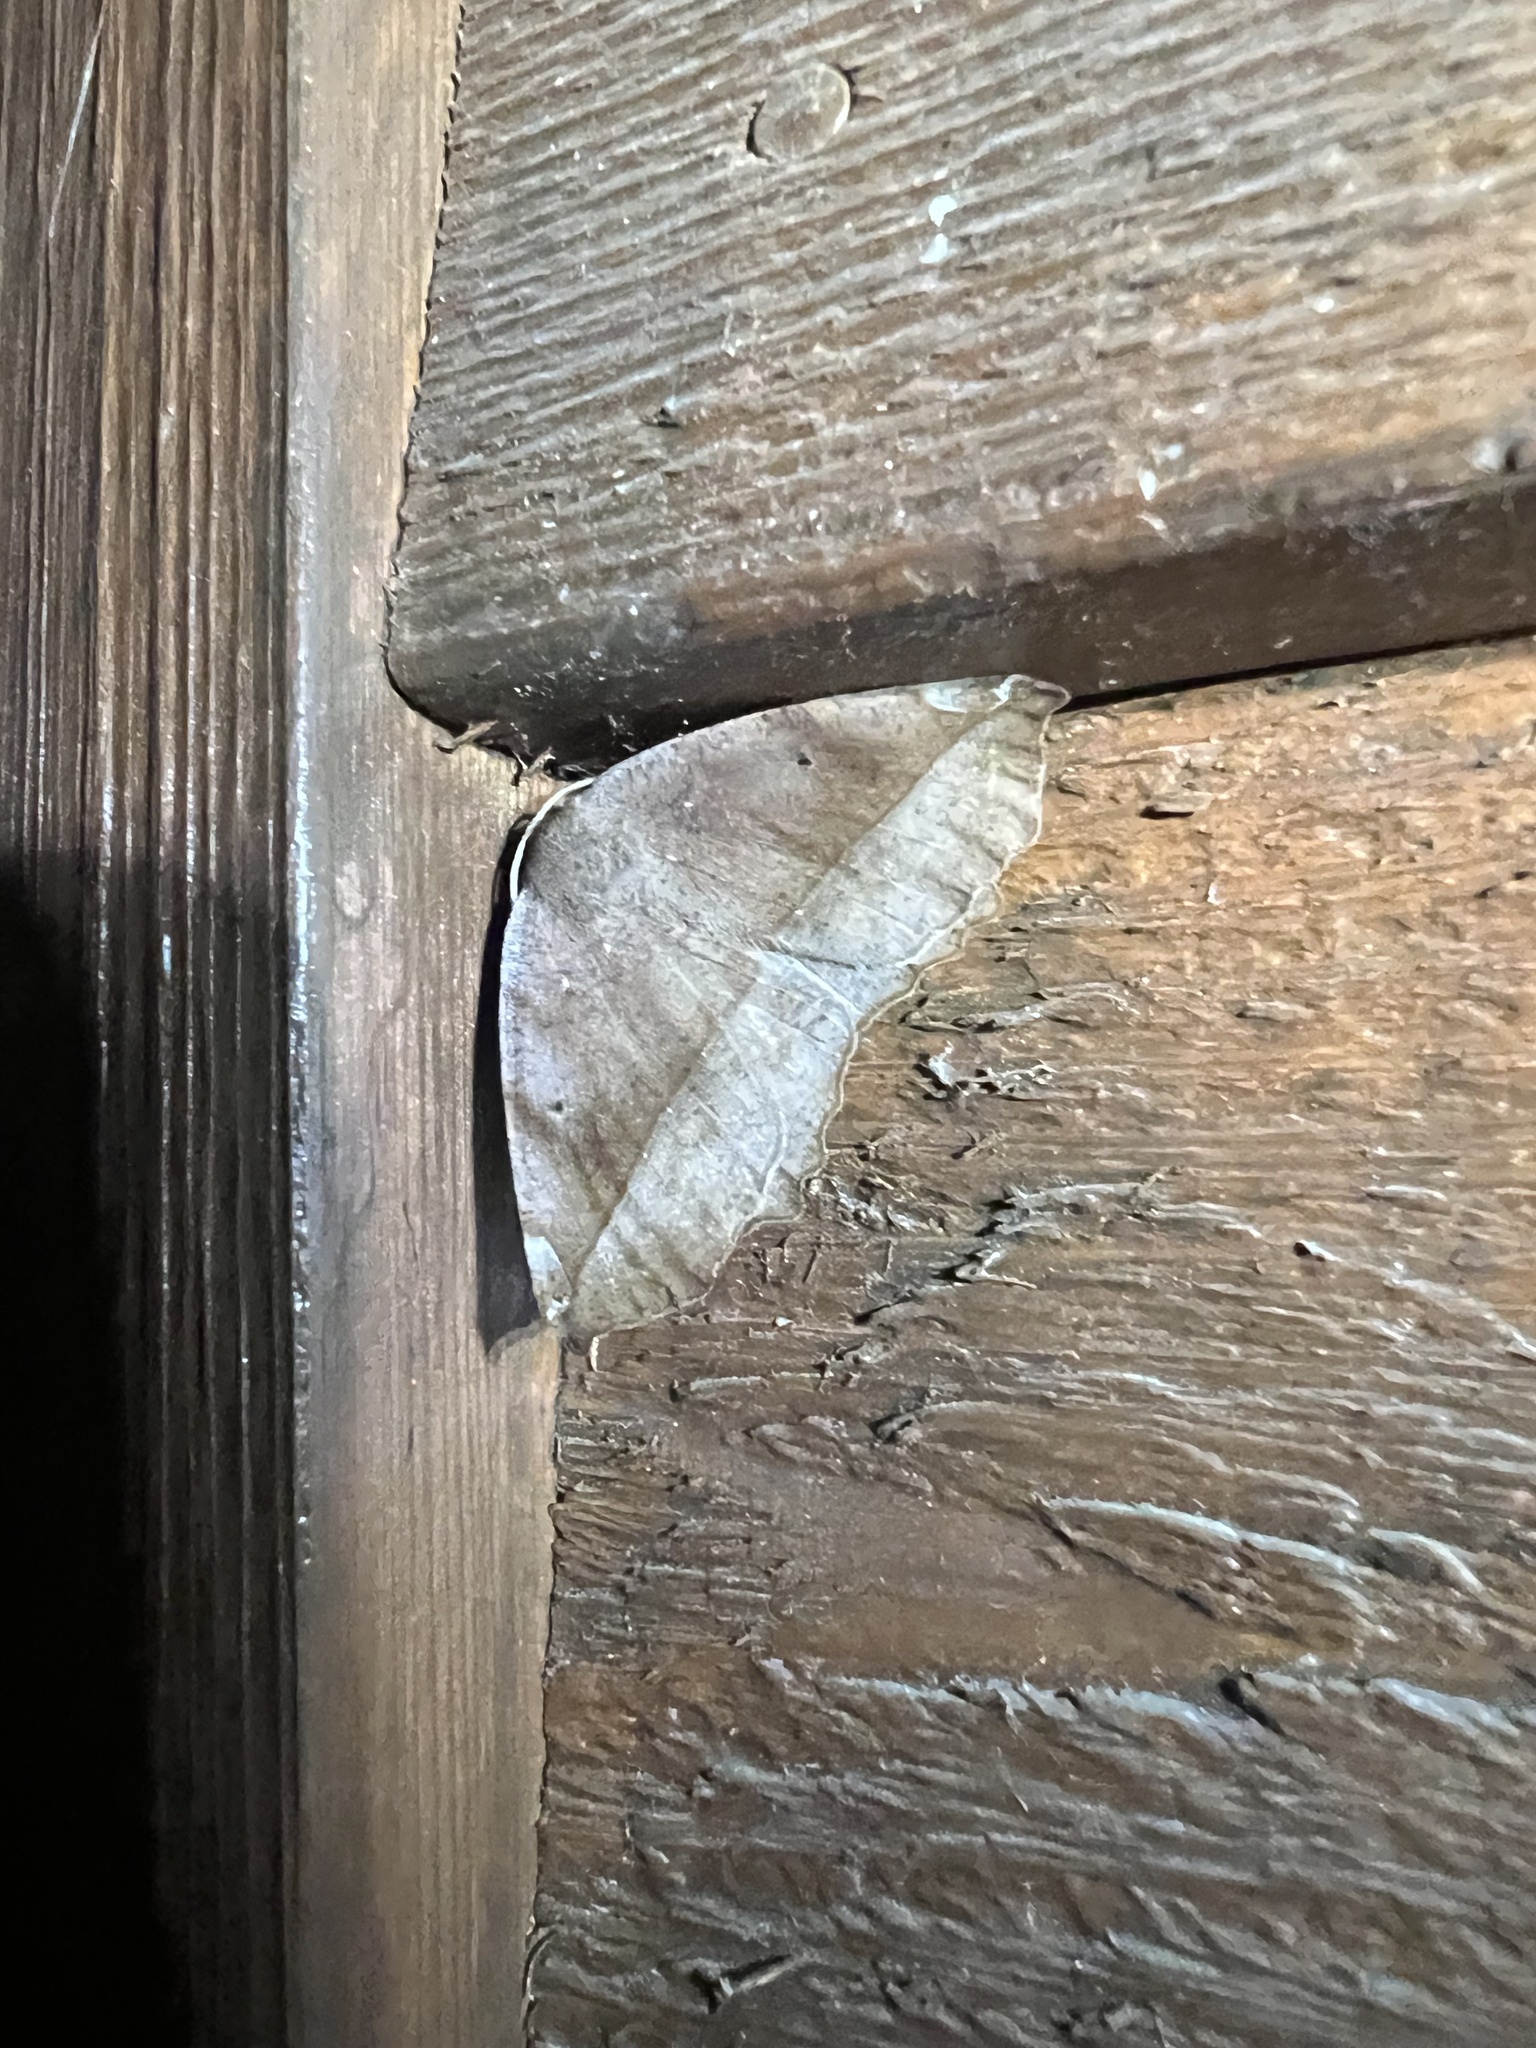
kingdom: Animalia
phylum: Arthropoda
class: Insecta
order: Lepidoptera
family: Geometridae
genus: Eutrapela
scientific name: Eutrapela clemataria
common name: Curved-toothed geometer
